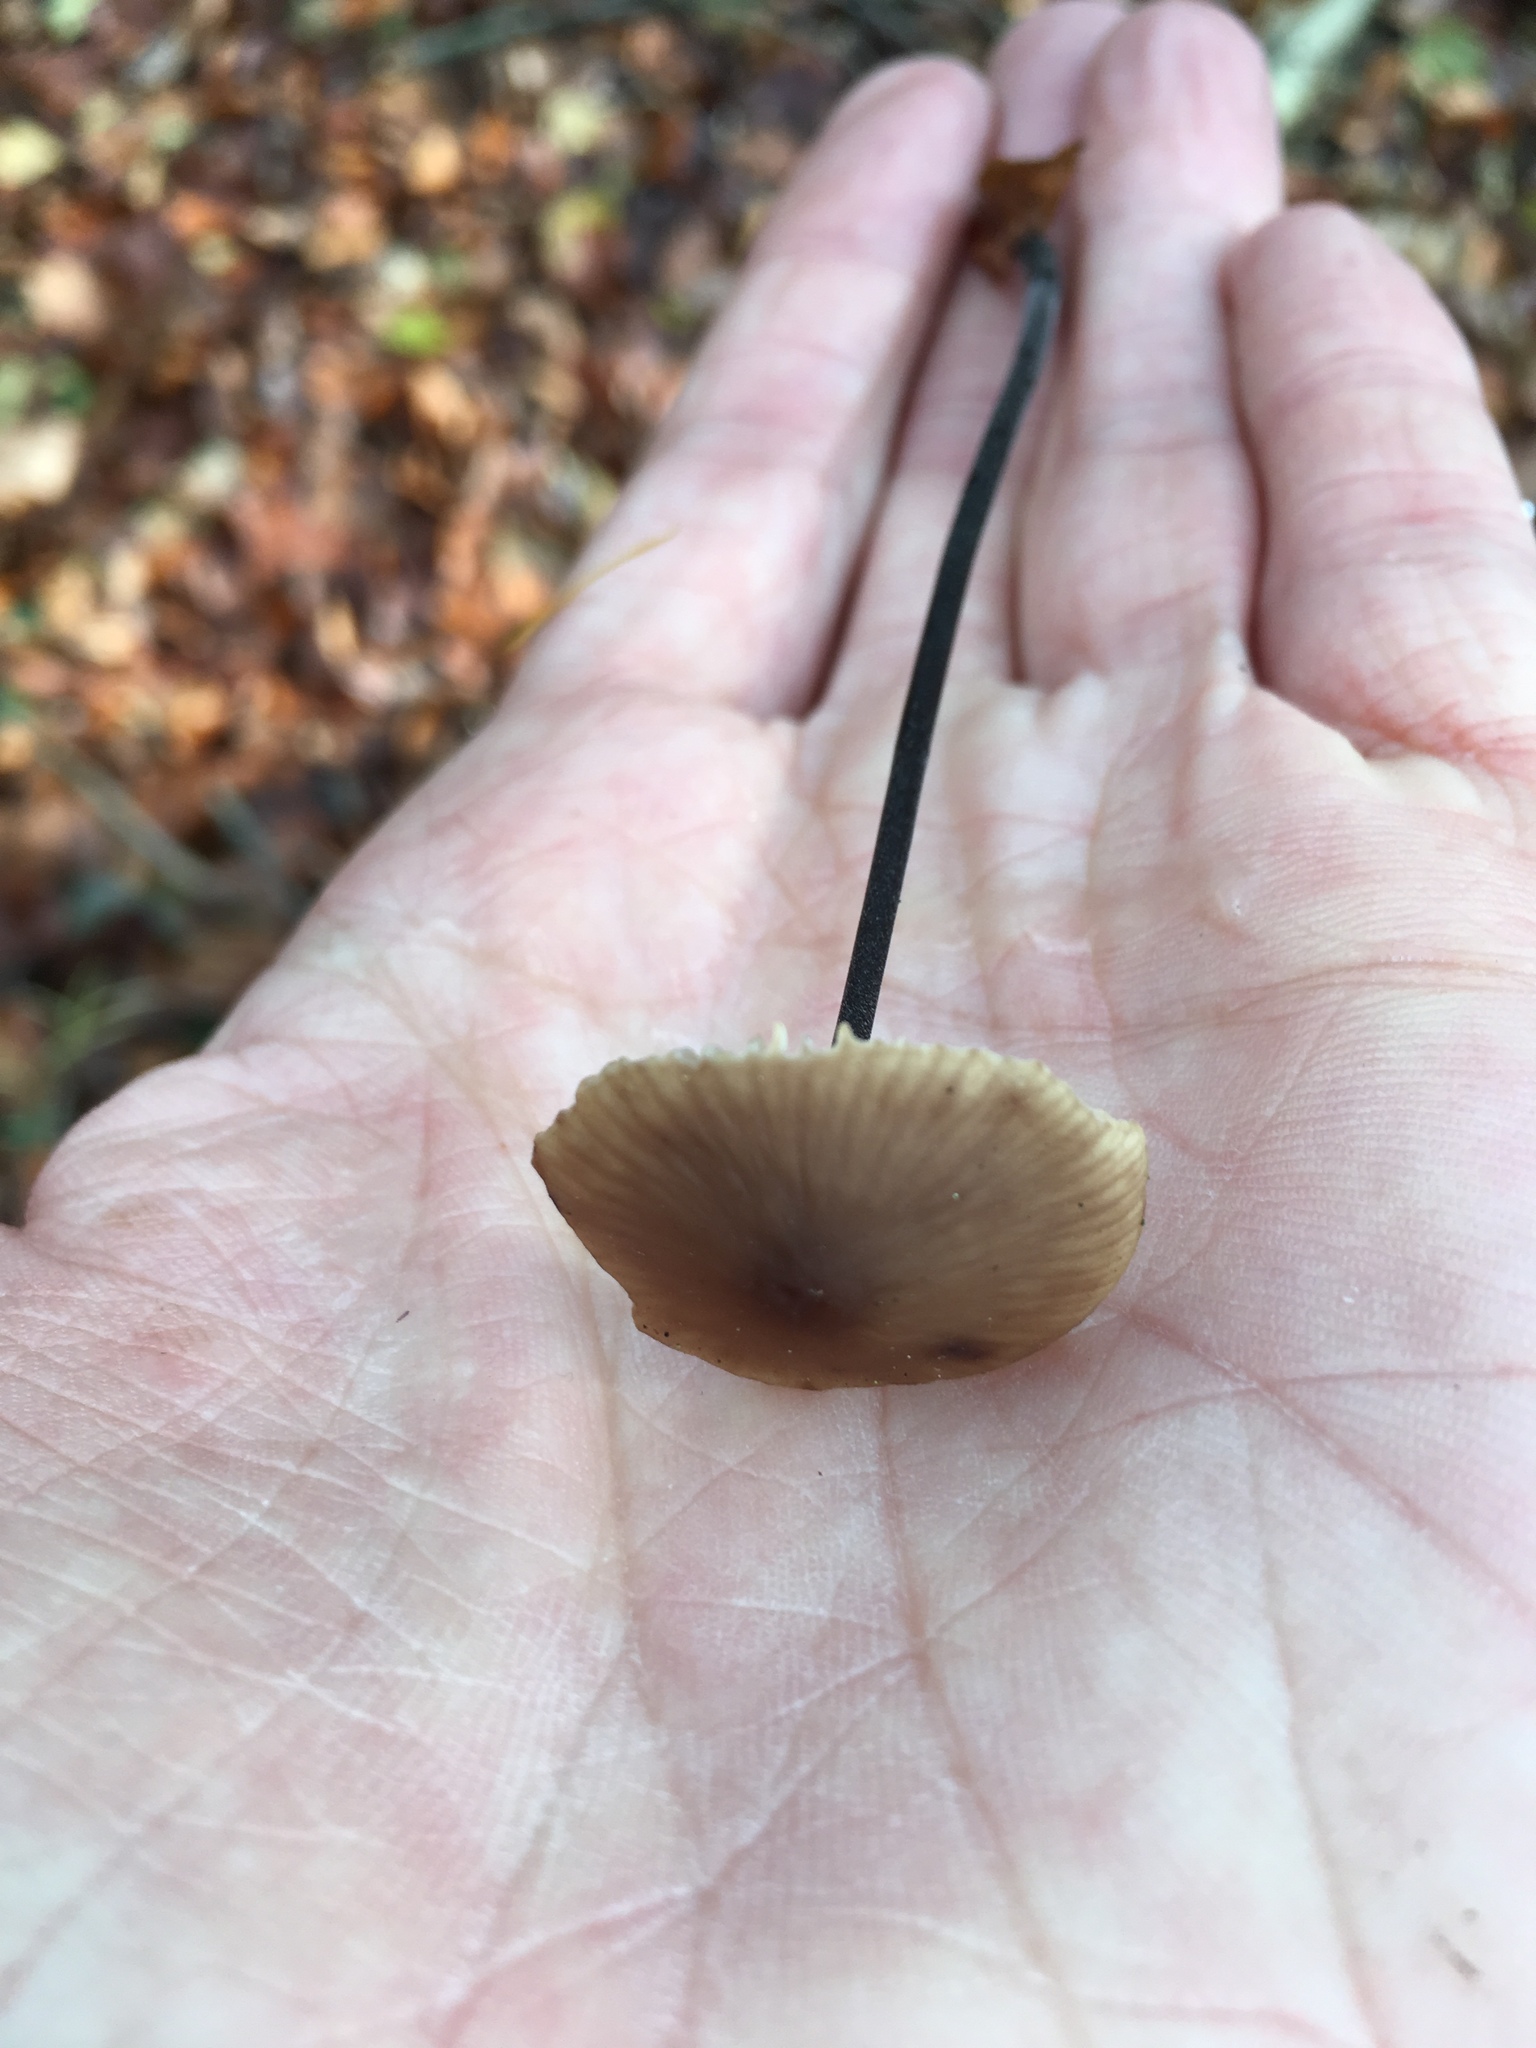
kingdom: Fungi
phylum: Basidiomycota
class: Agaricomycetes
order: Agaricales
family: Omphalotaceae
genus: Mycetinis
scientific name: Mycetinis alliaceus
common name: Garlic parachute
